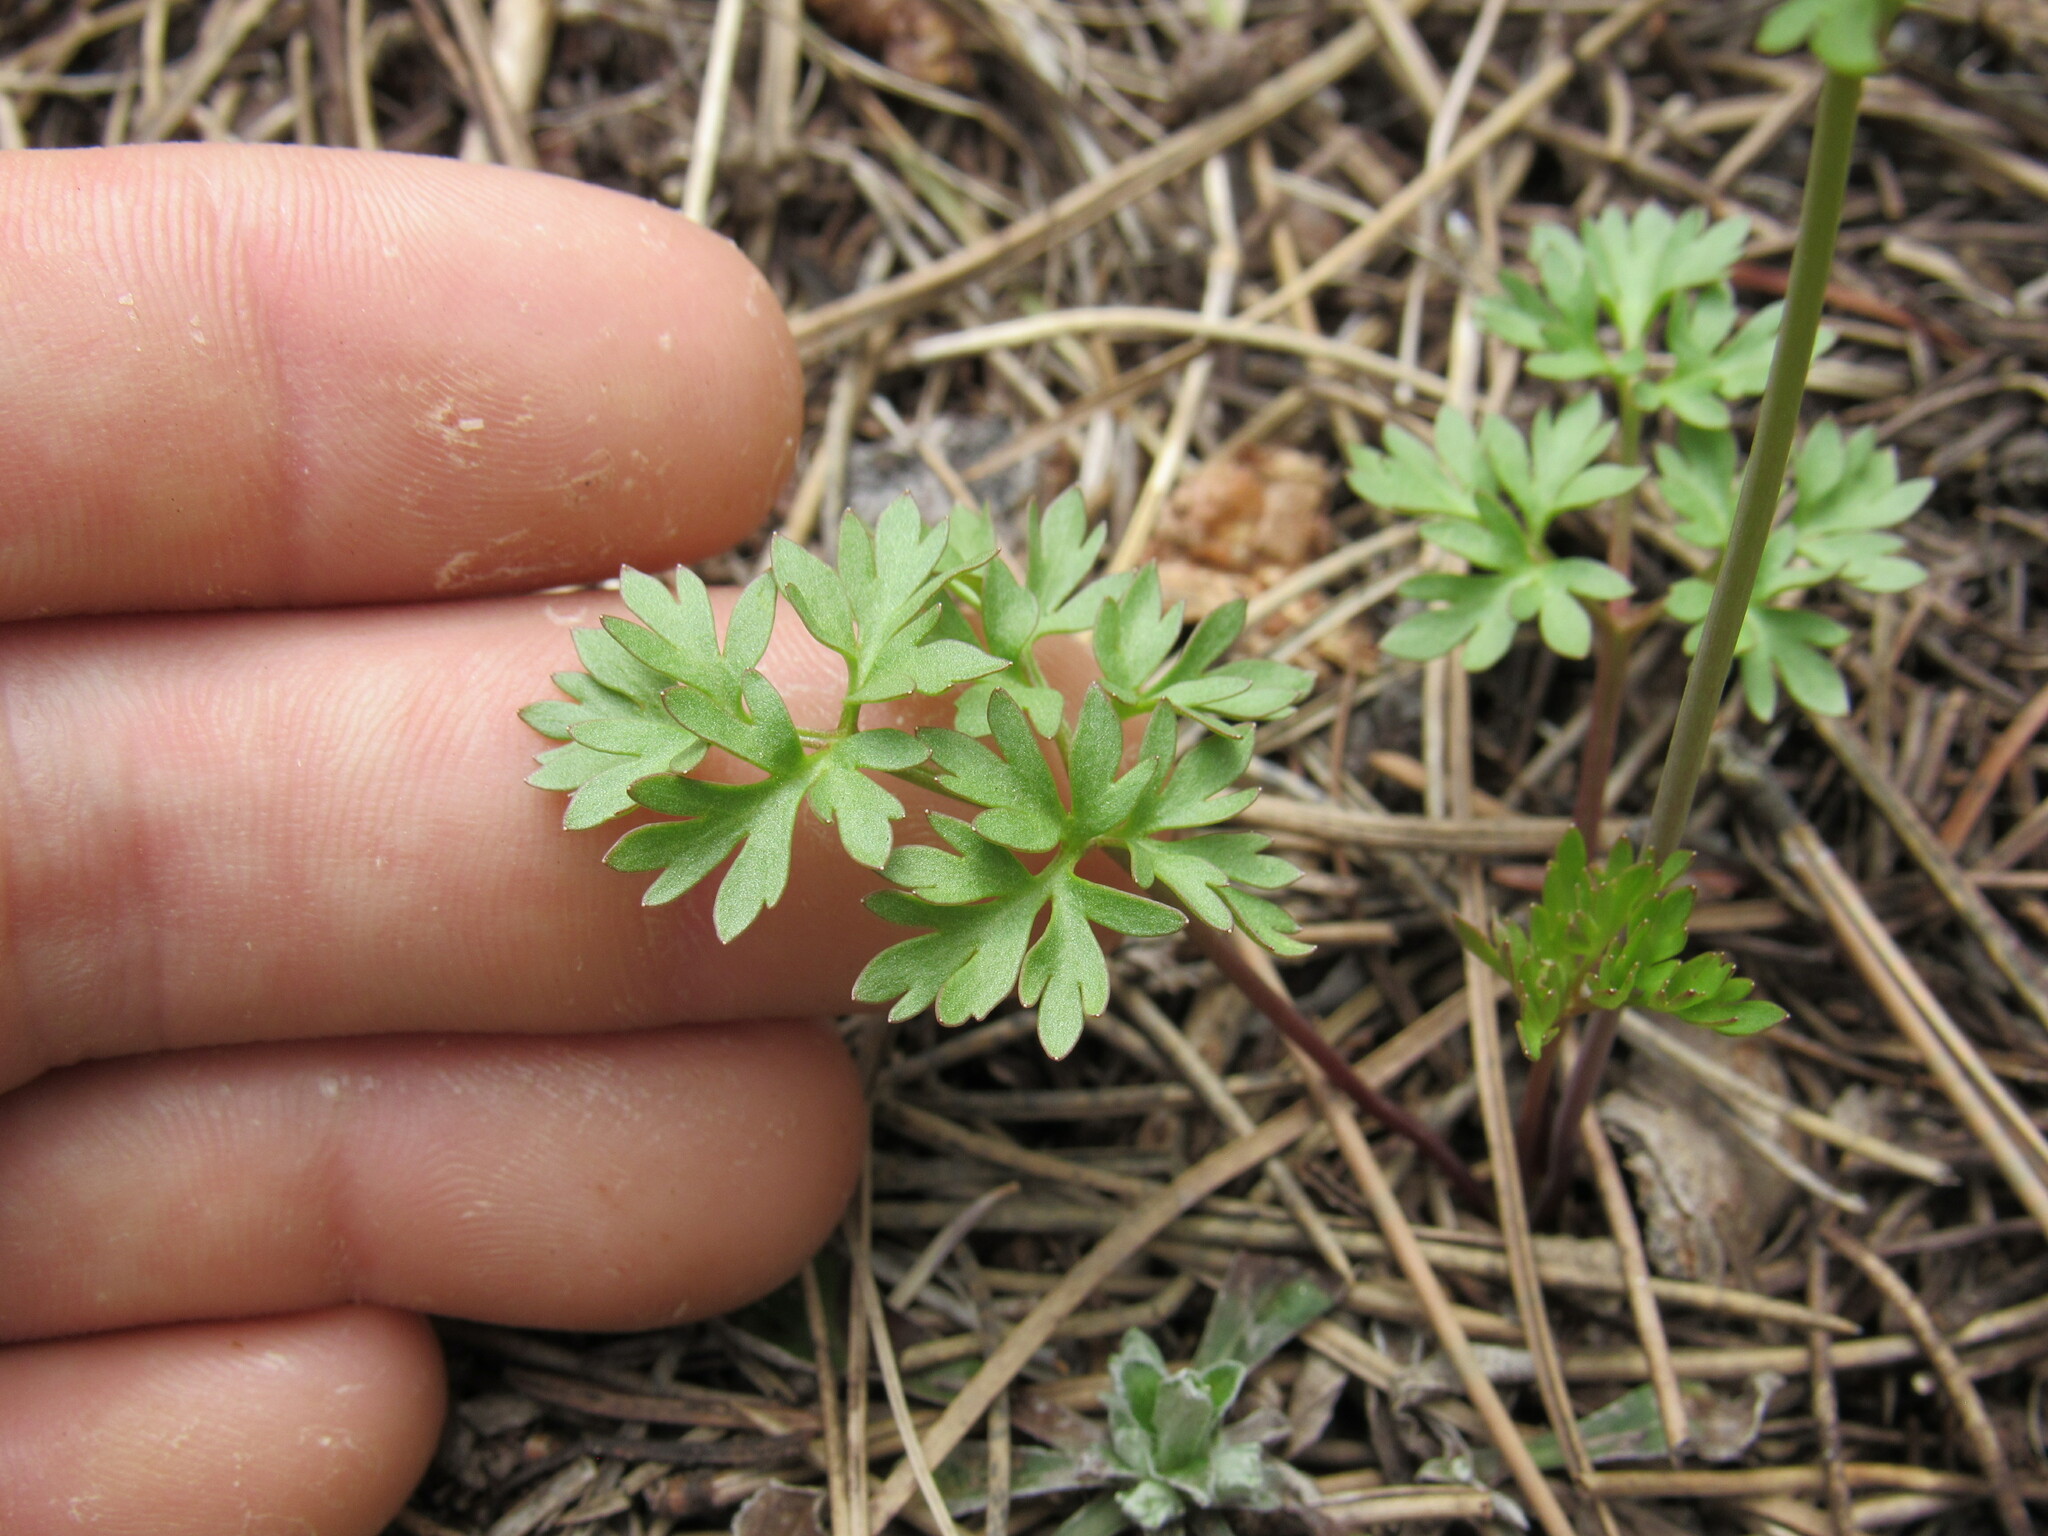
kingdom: Plantae
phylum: Tracheophyta
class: Magnoliopsida
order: Ranunculales
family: Ranunculaceae
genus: Cyrtorhyncha
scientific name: Cyrtorhyncha ranunculina
